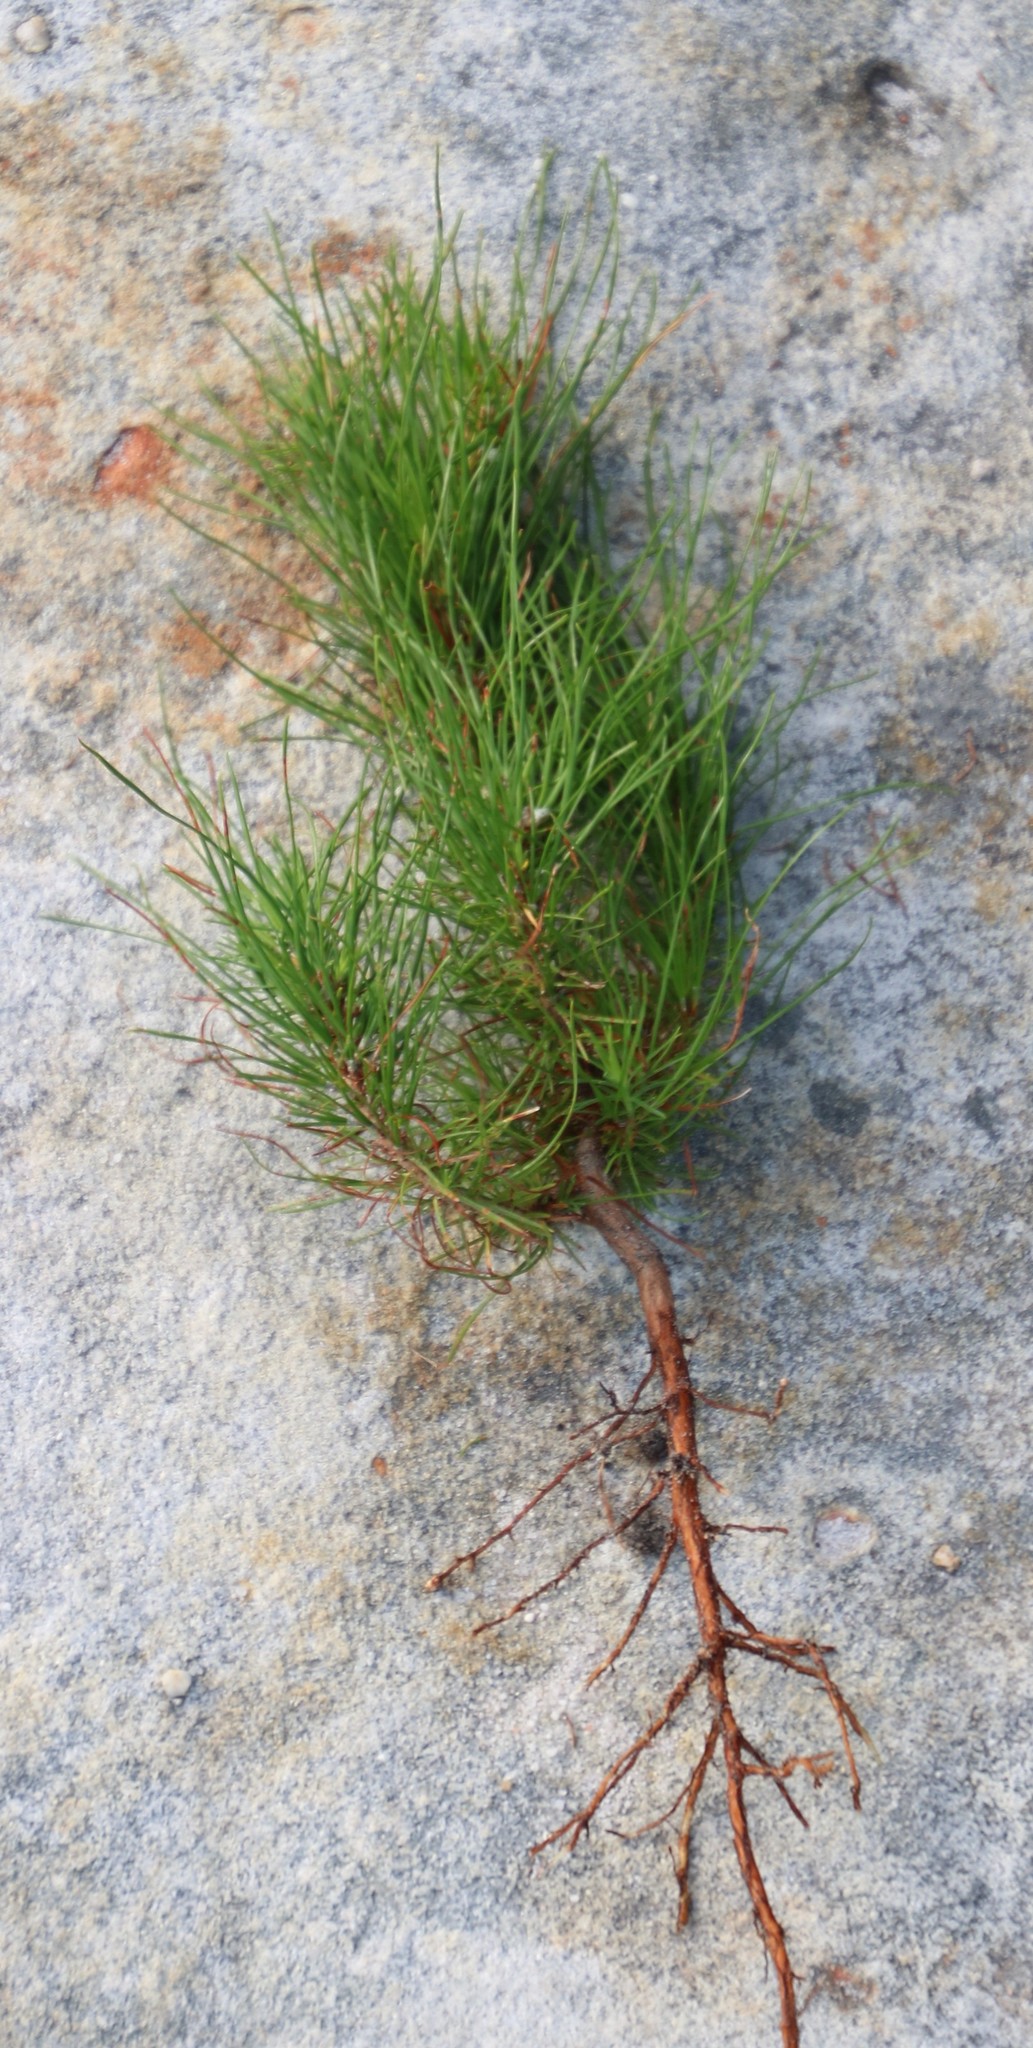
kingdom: Plantae
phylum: Tracheophyta
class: Pinopsida
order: Pinales
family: Pinaceae
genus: Pinus
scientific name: Pinus radiata
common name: Monterey pine
